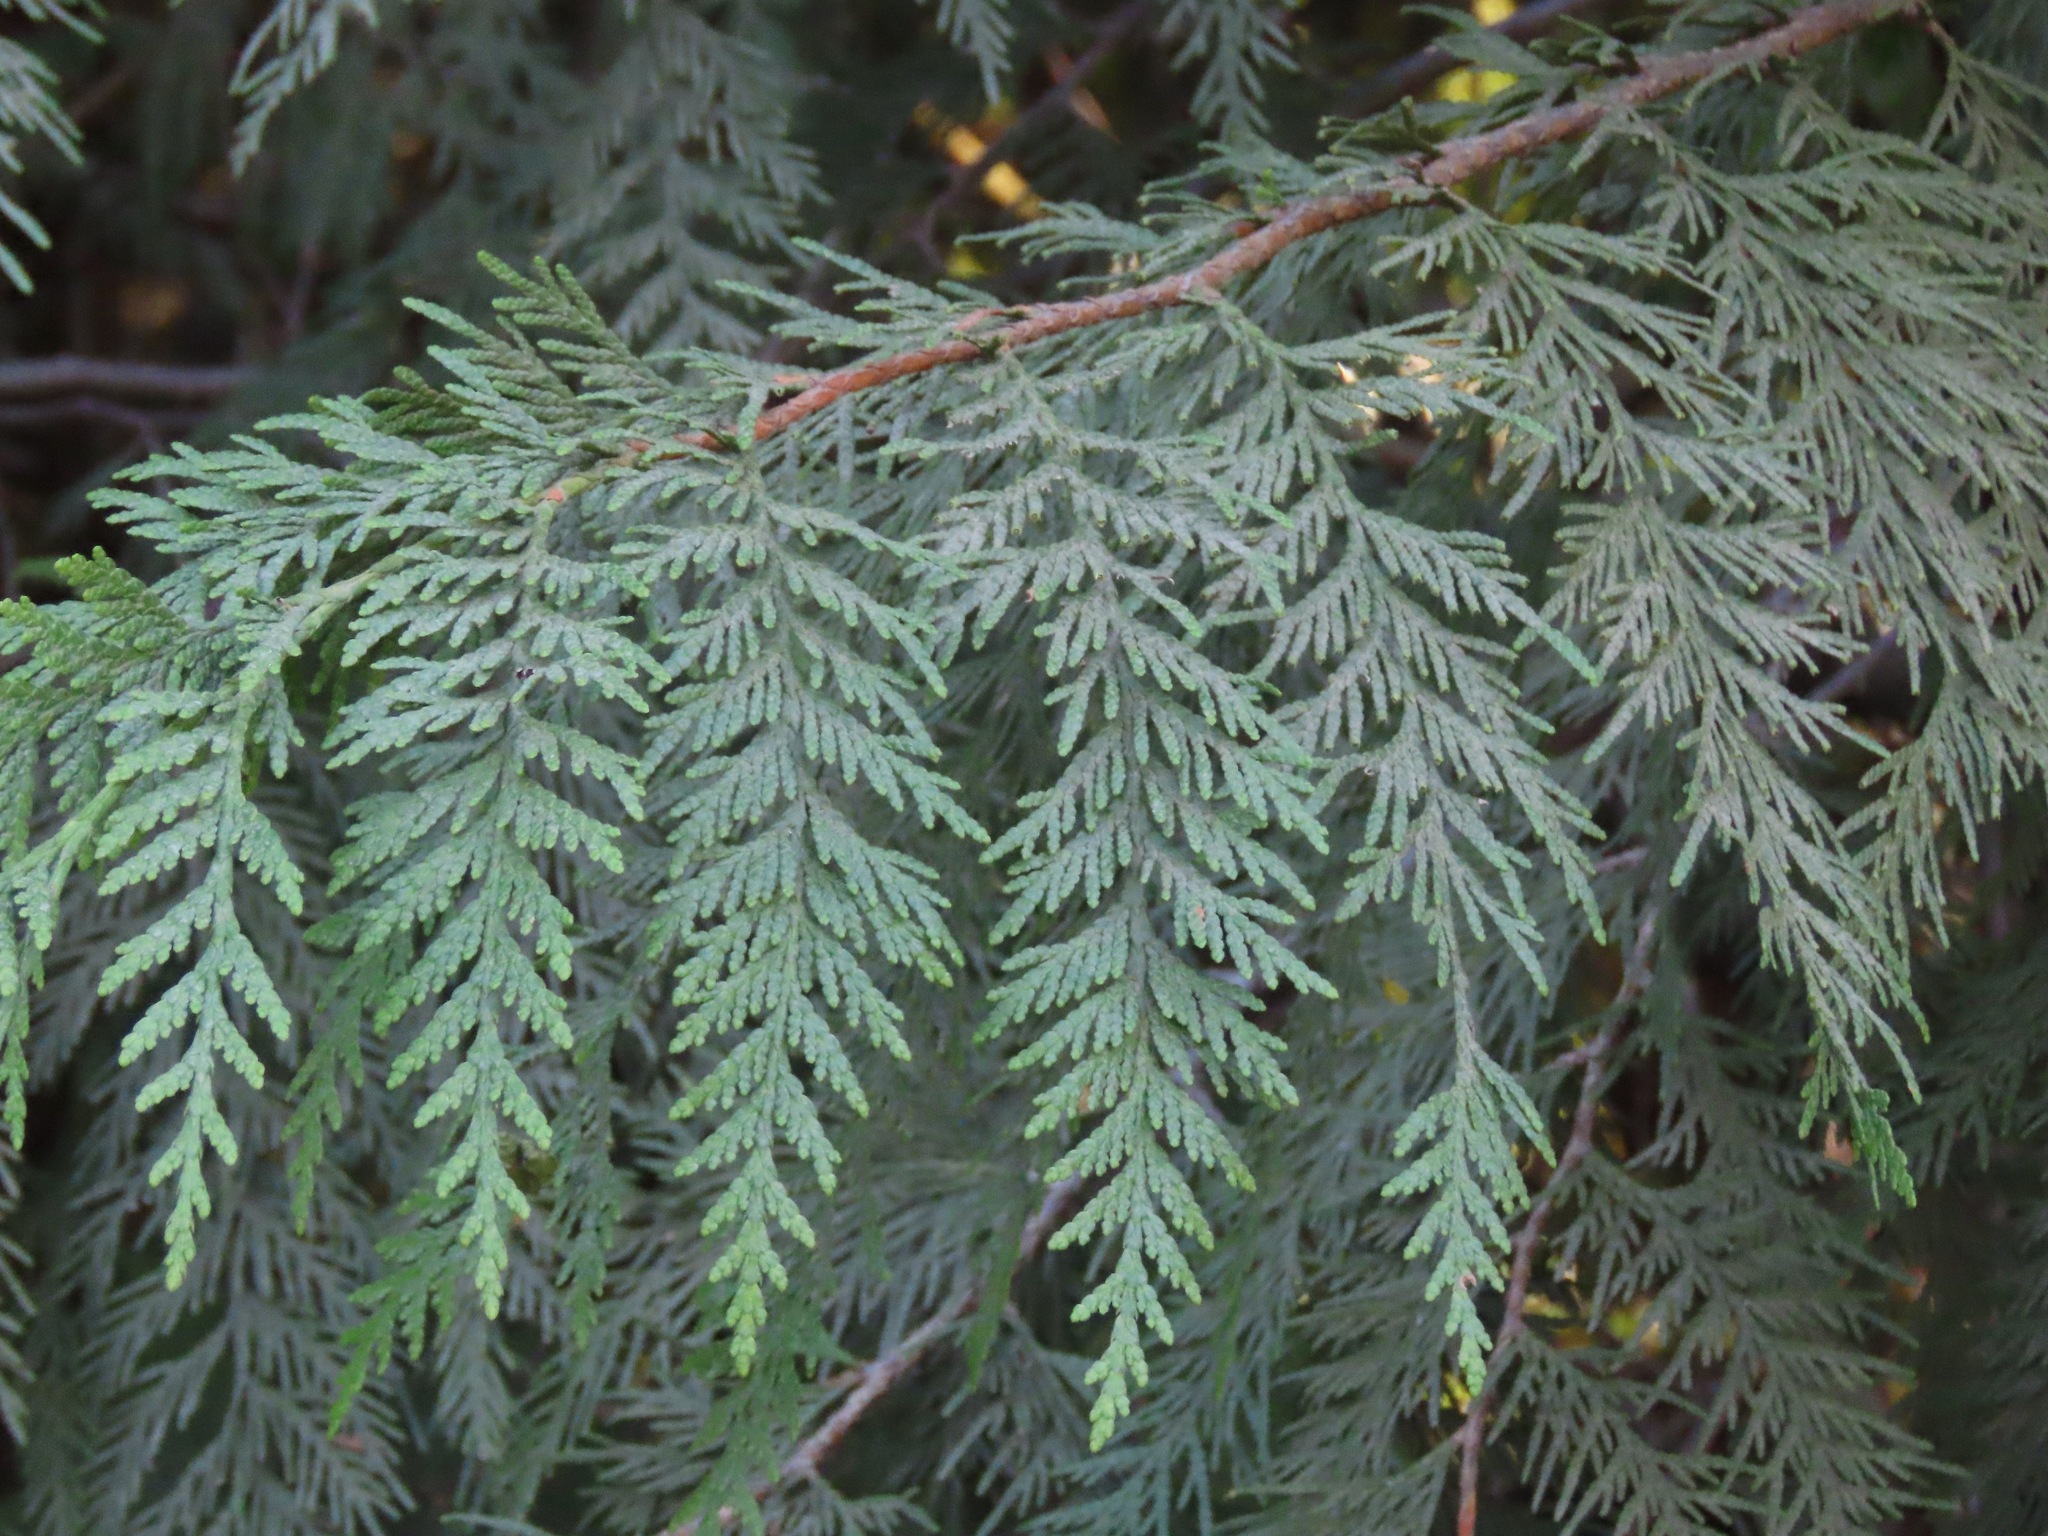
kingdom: Plantae
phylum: Tracheophyta
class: Pinopsida
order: Pinales
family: Cupressaceae
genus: Thuja
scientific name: Thuja plicata
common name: Western red-cedar
